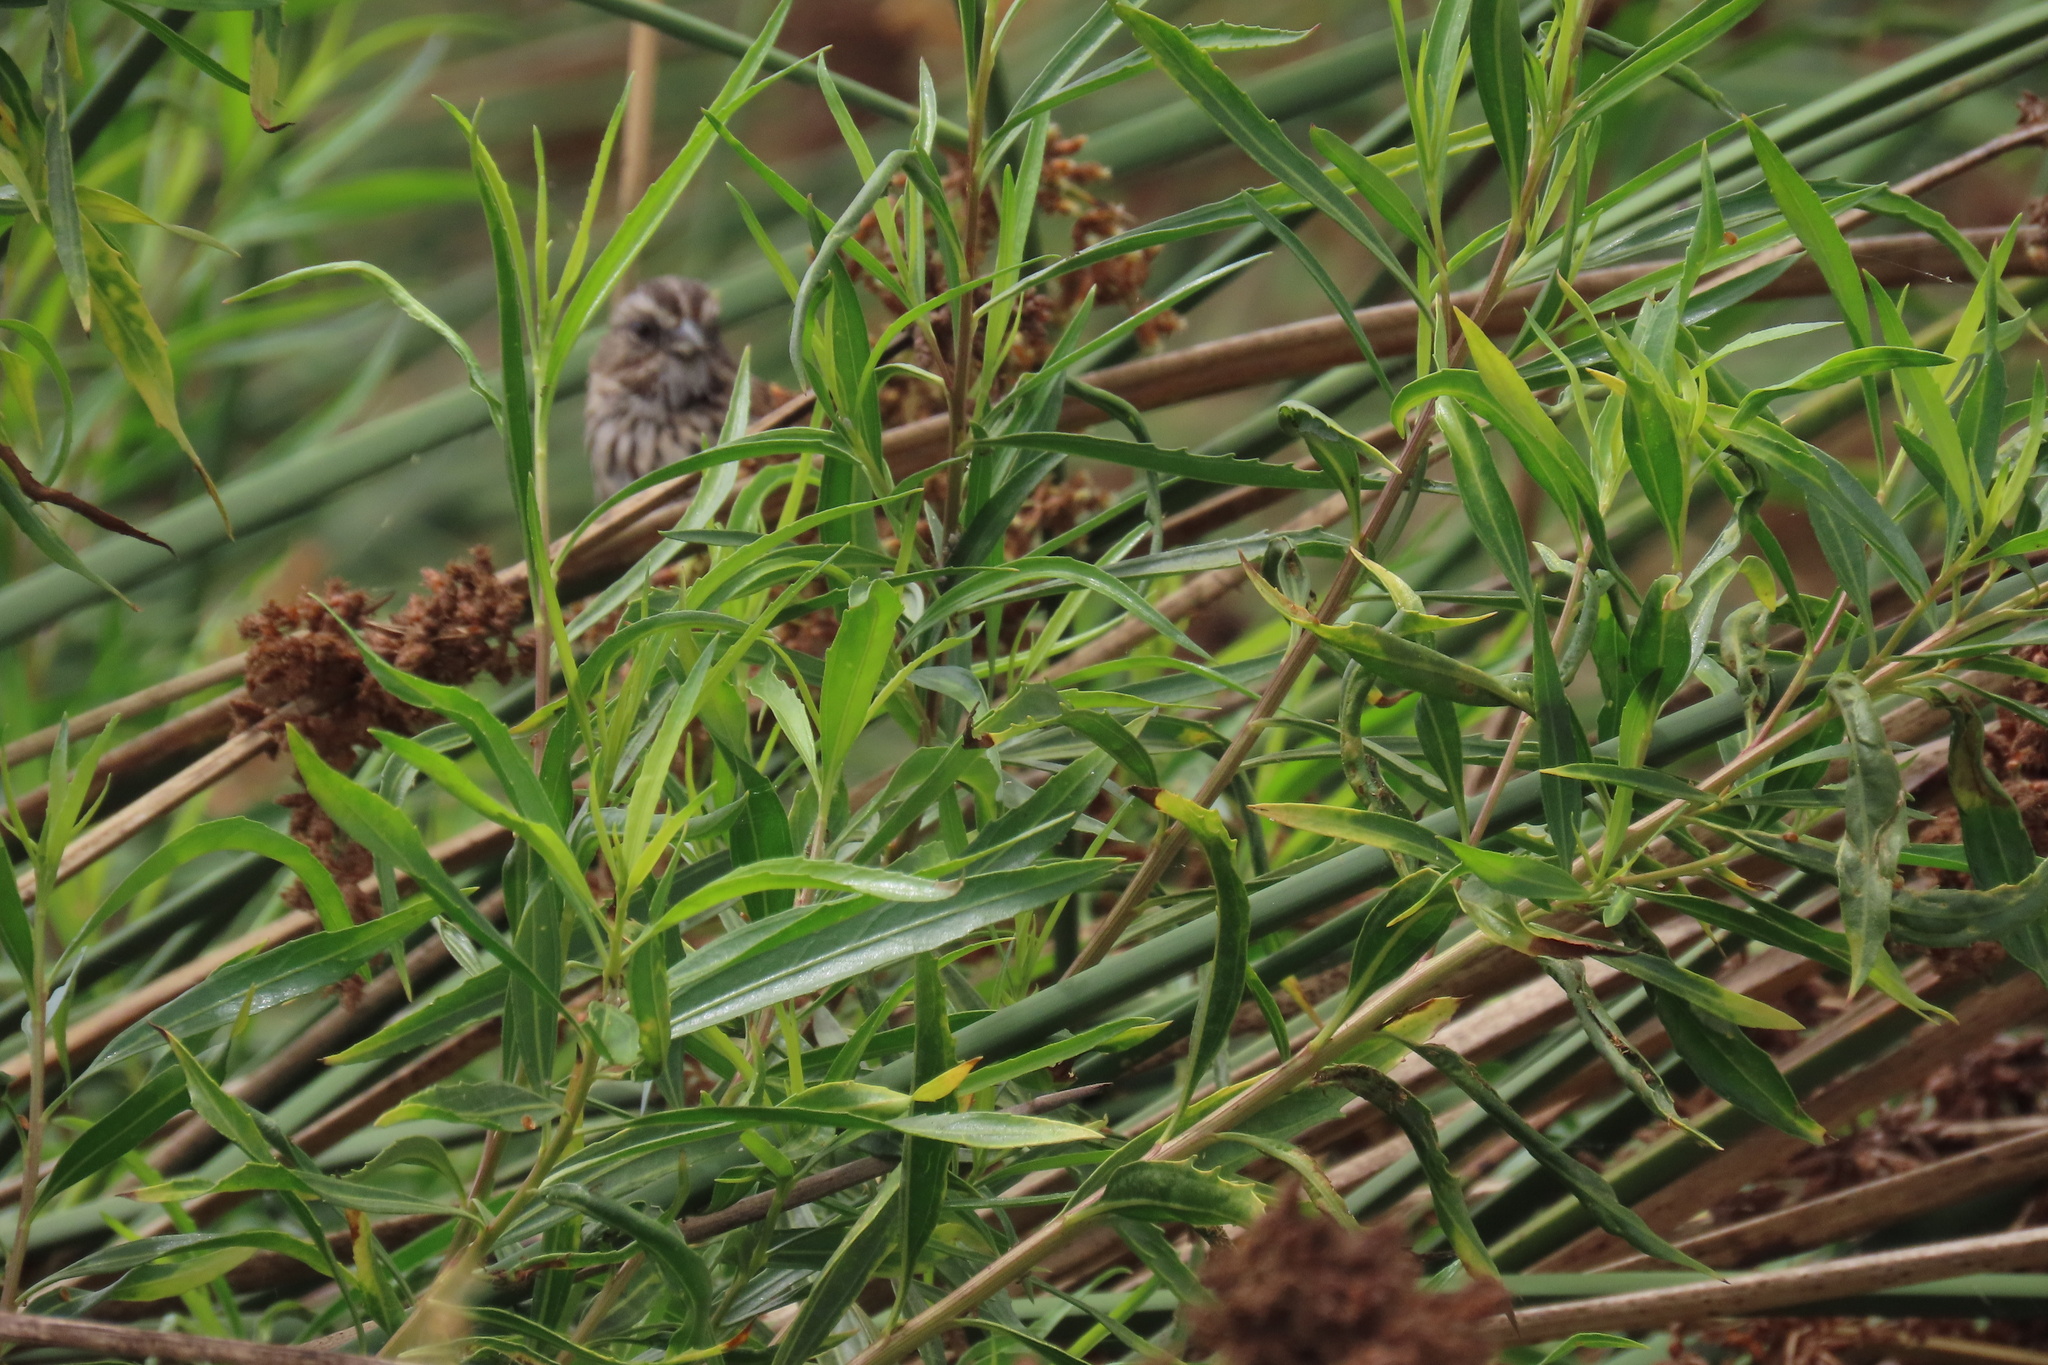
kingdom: Animalia
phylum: Chordata
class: Aves
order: Passeriformes
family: Passerellidae
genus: Melospiza
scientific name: Melospiza melodia
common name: Song sparrow
